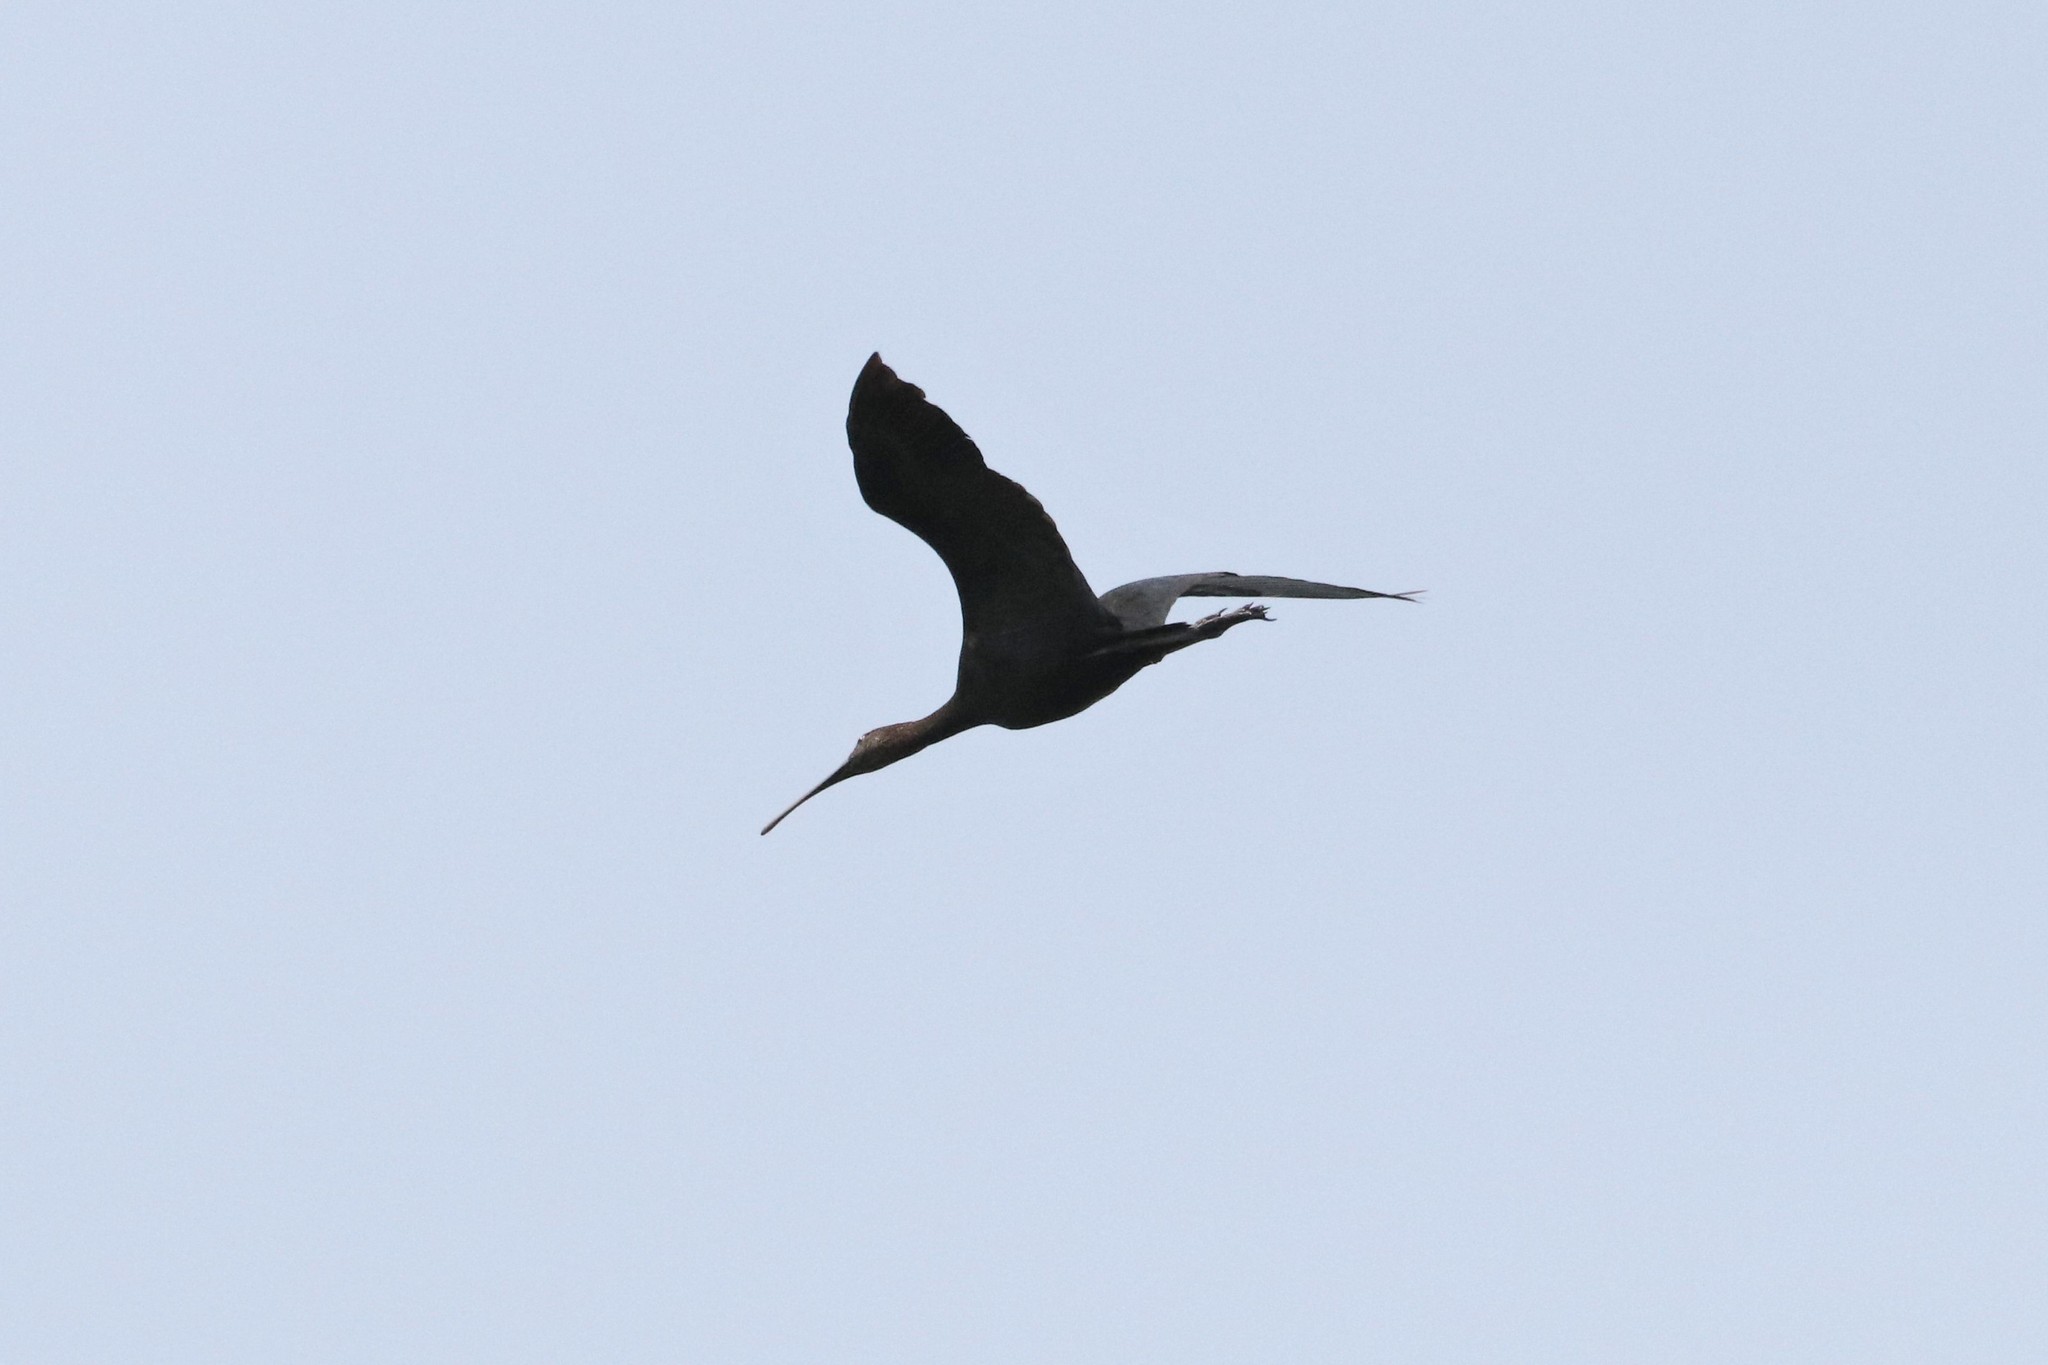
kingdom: Animalia
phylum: Chordata
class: Aves
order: Pelecaniformes
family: Threskiornithidae
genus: Plegadis
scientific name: Plegadis falcinellus
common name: Glossy ibis
